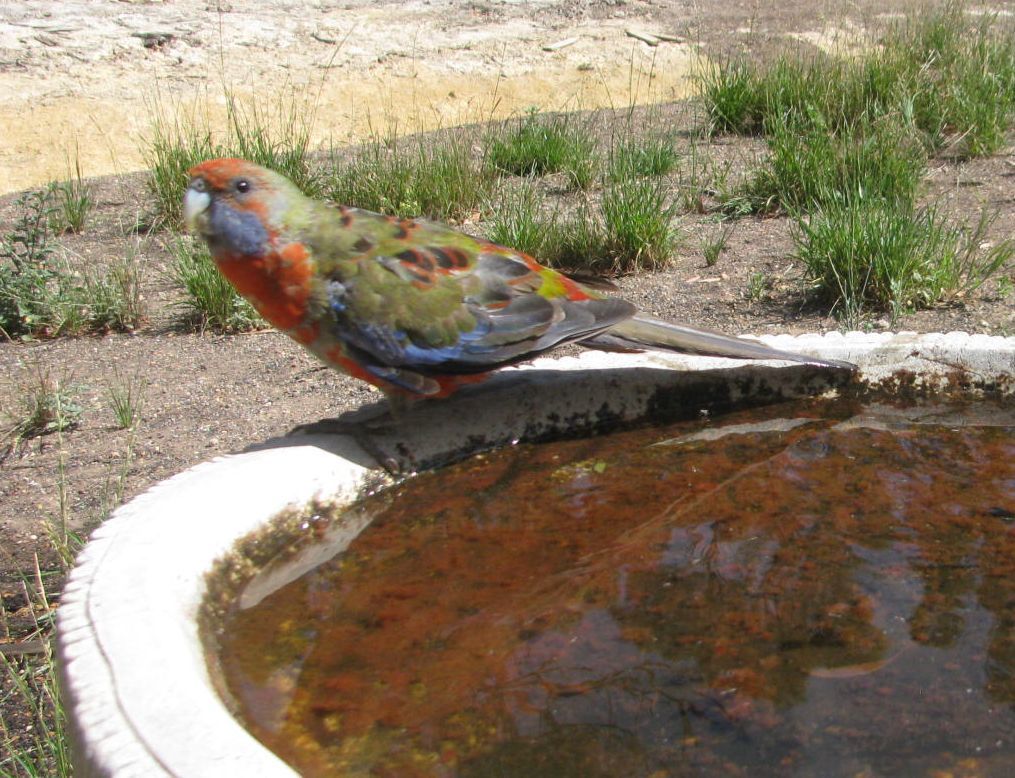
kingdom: Animalia
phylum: Chordata
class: Aves
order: Psittaciformes
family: Psittacidae
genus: Platycercus
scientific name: Platycercus elegans
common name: Crimson rosella
